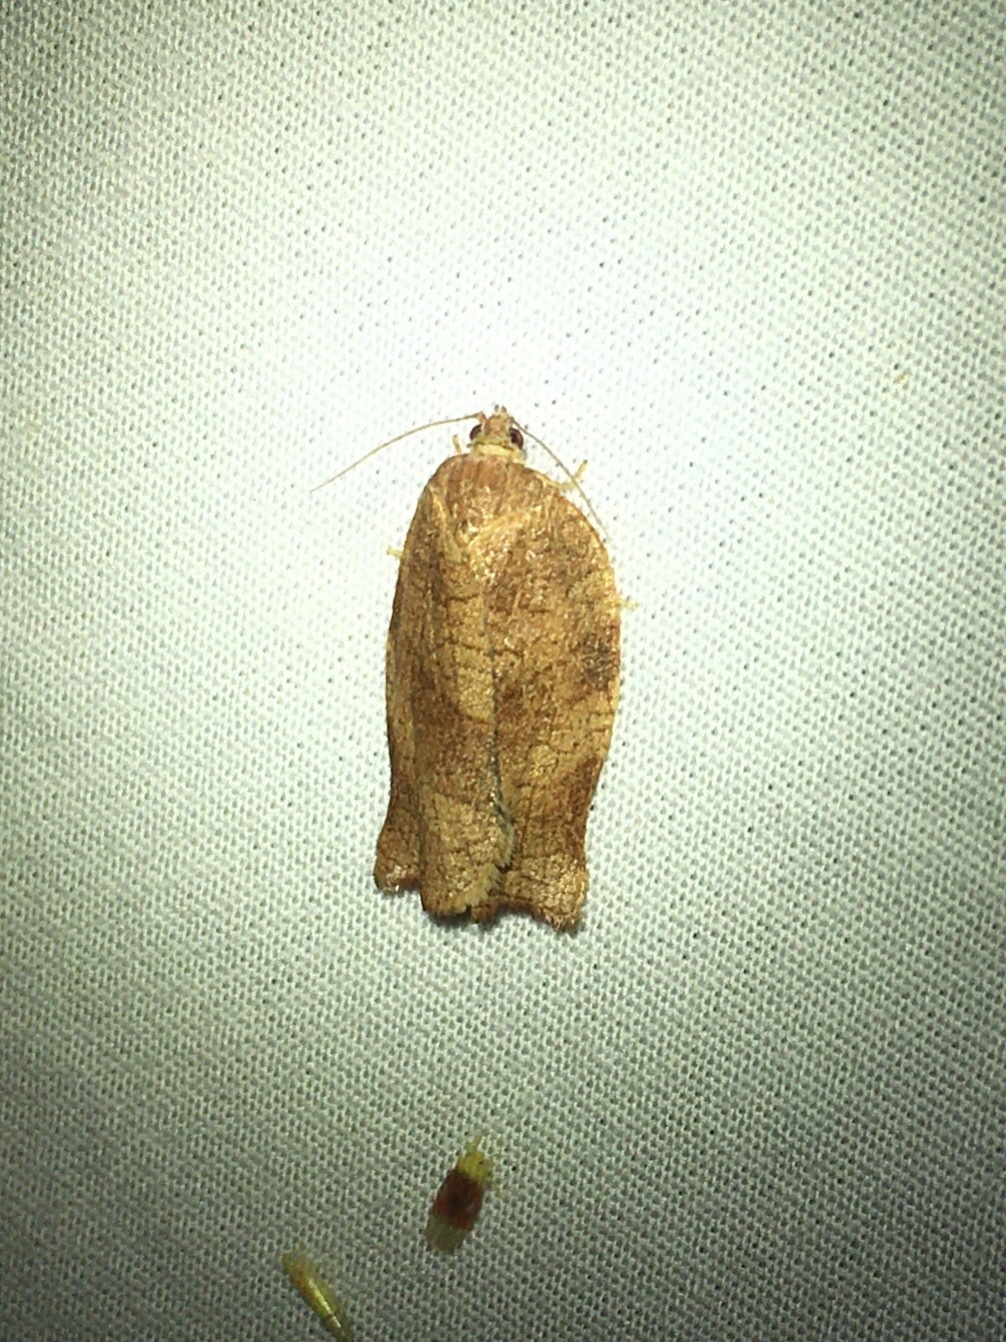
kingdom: Animalia
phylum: Arthropoda
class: Insecta
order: Lepidoptera
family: Tortricidae
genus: Choristoneura
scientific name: Choristoneura rosaceana
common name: Oblique-banded leafroller moth
